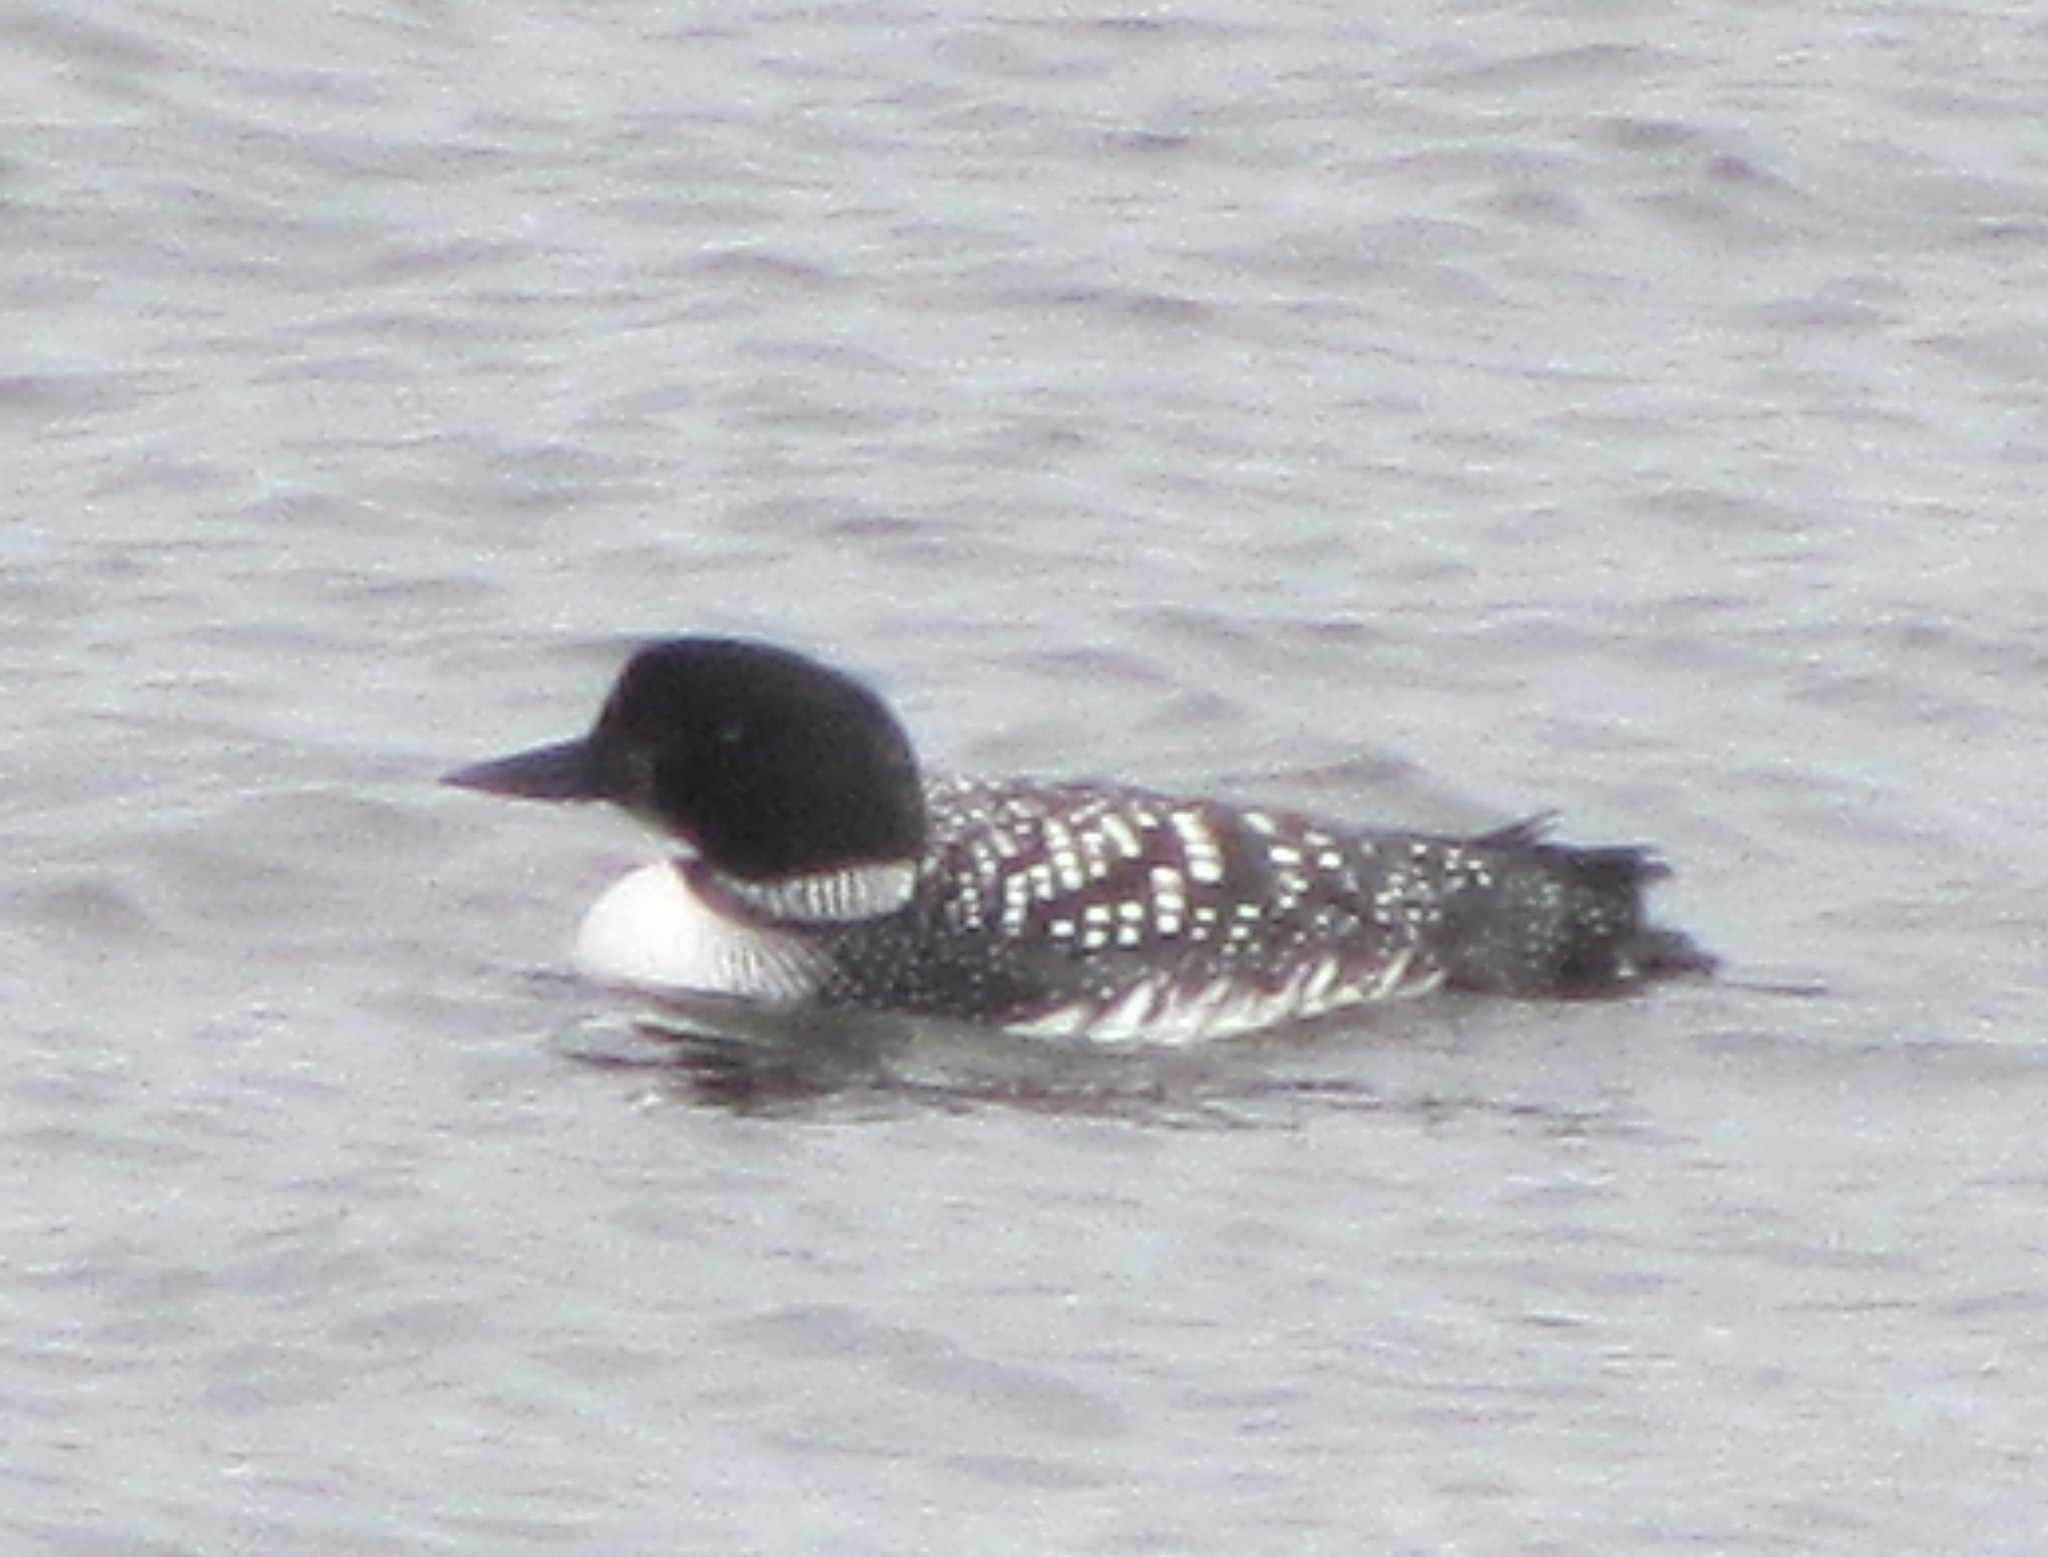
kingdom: Animalia
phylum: Chordata
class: Aves
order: Gaviiformes
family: Gaviidae
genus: Gavia
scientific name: Gavia immer
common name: Common loon
